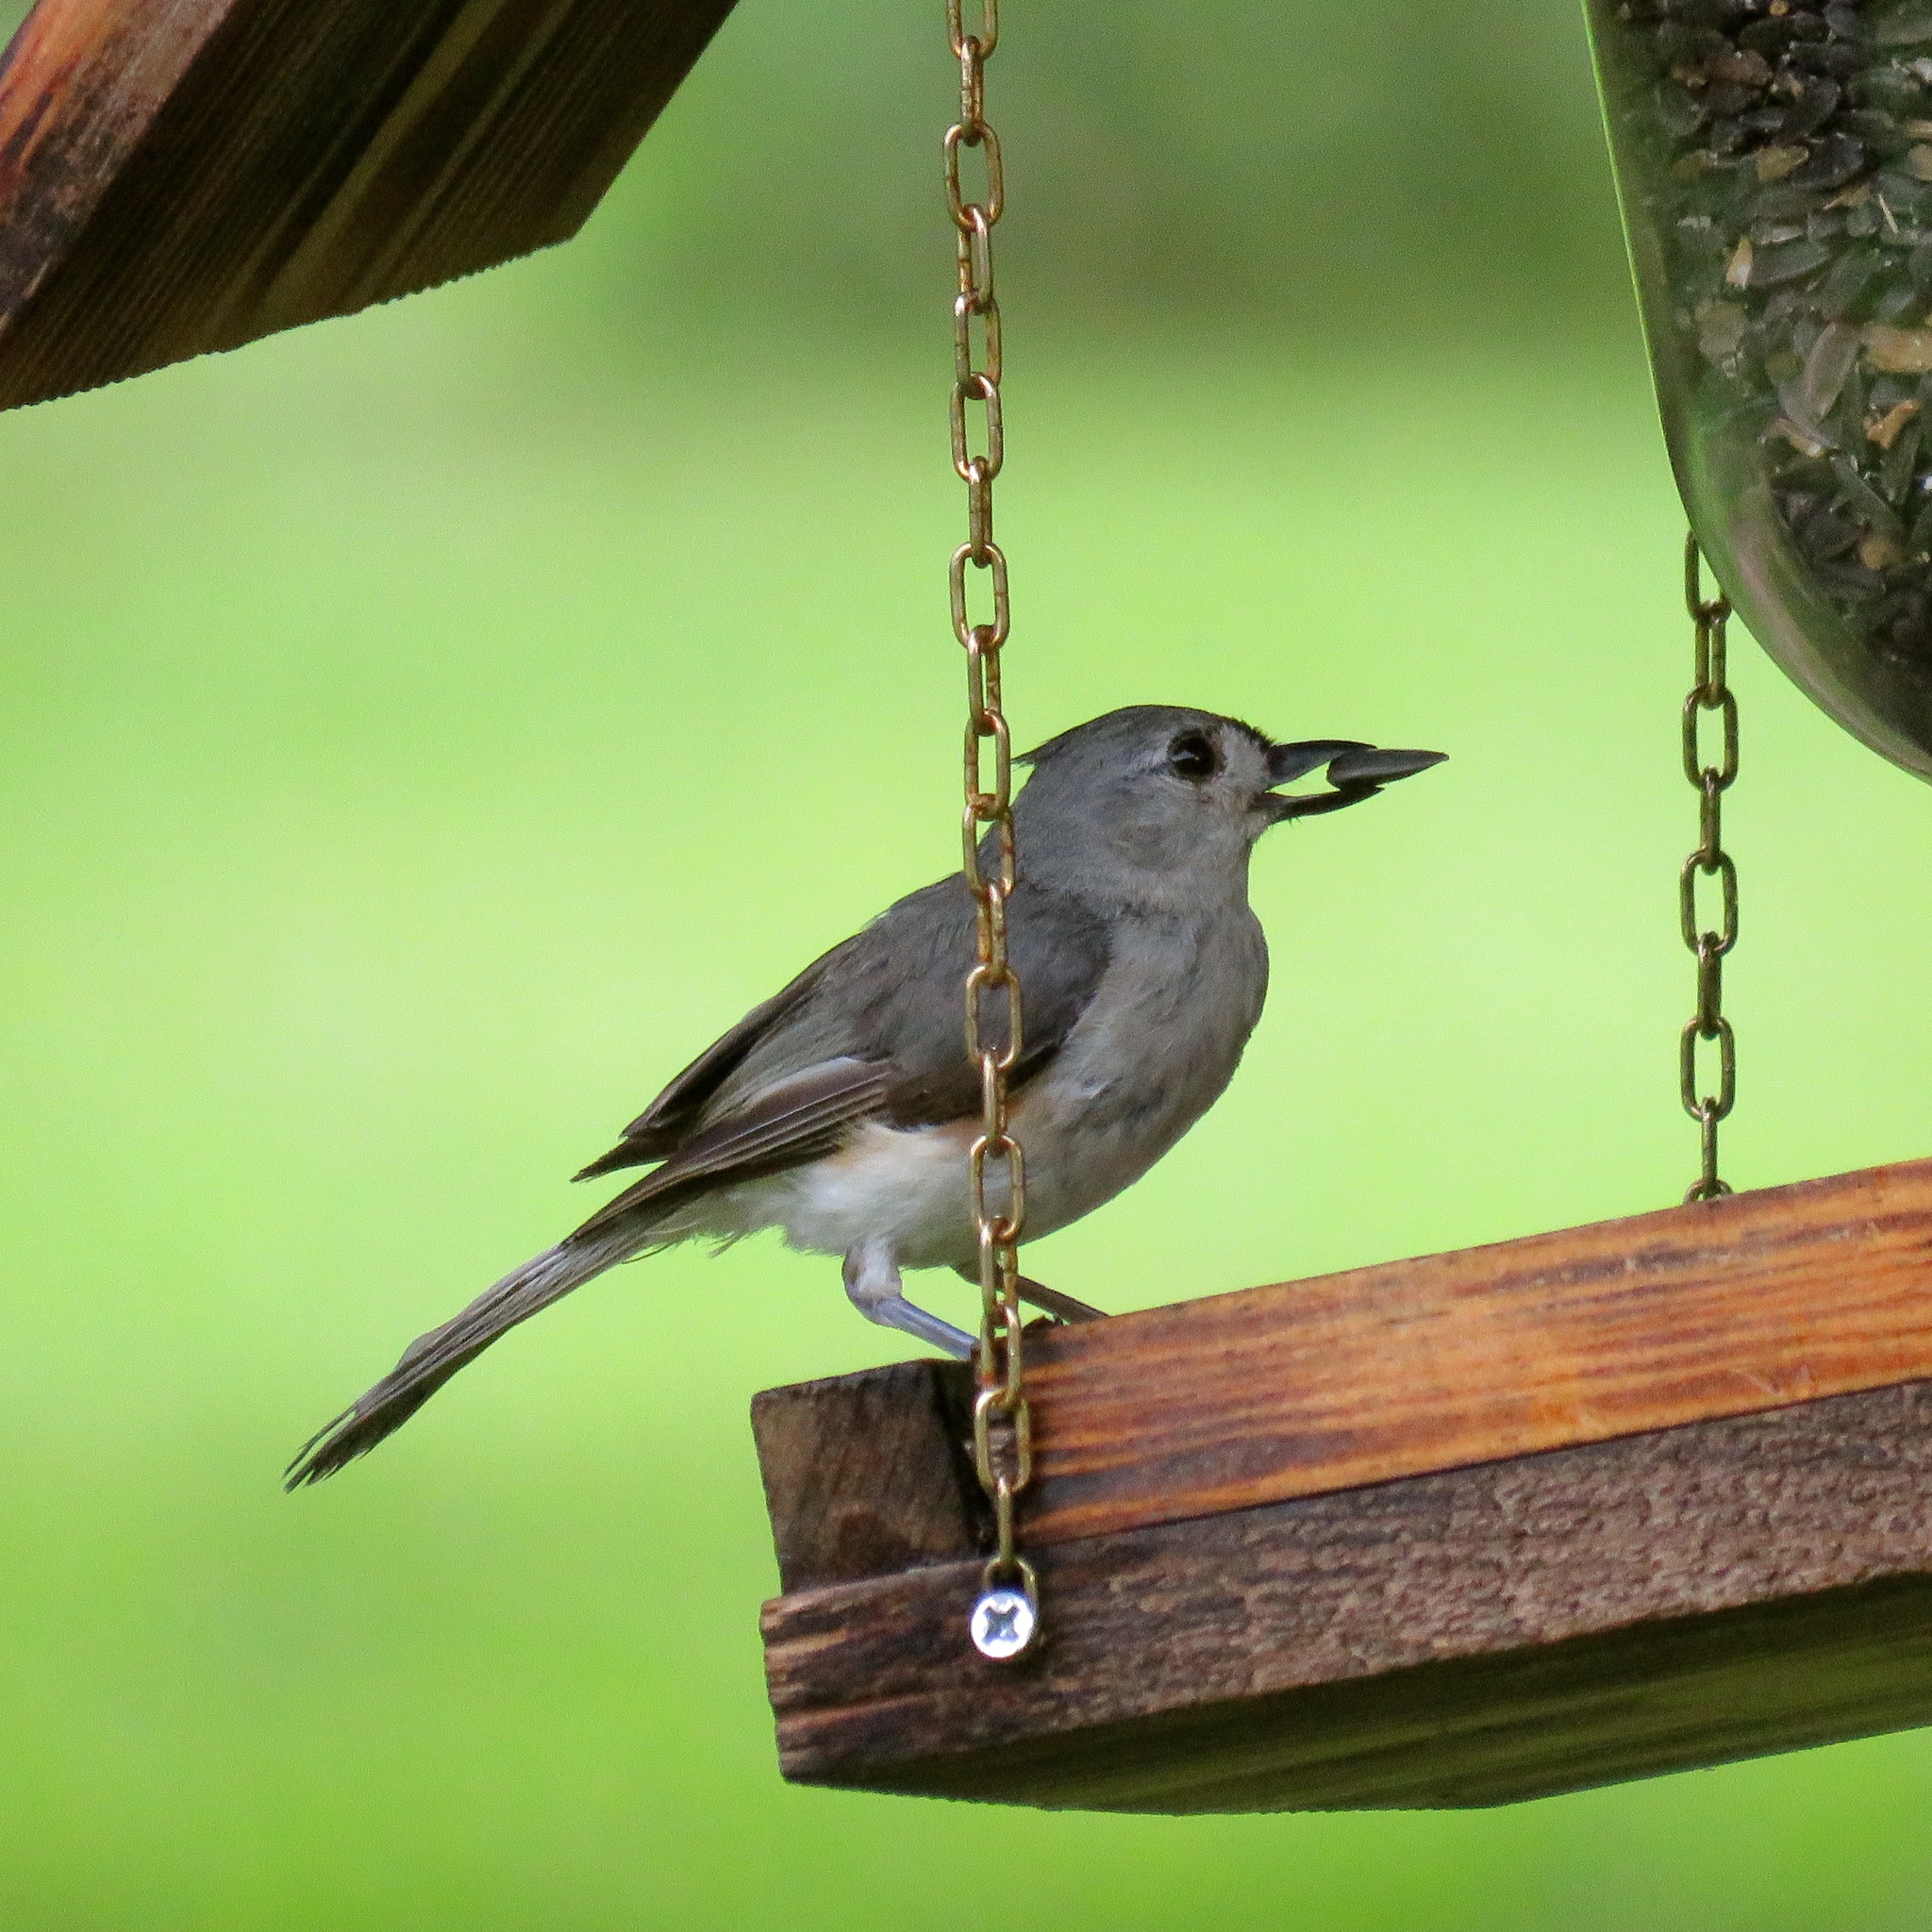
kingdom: Animalia
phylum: Chordata
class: Aves
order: Passeriformes
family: Paridae
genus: Baeolophus
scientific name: Baeolophus bicolor
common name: Tufted titmouse
